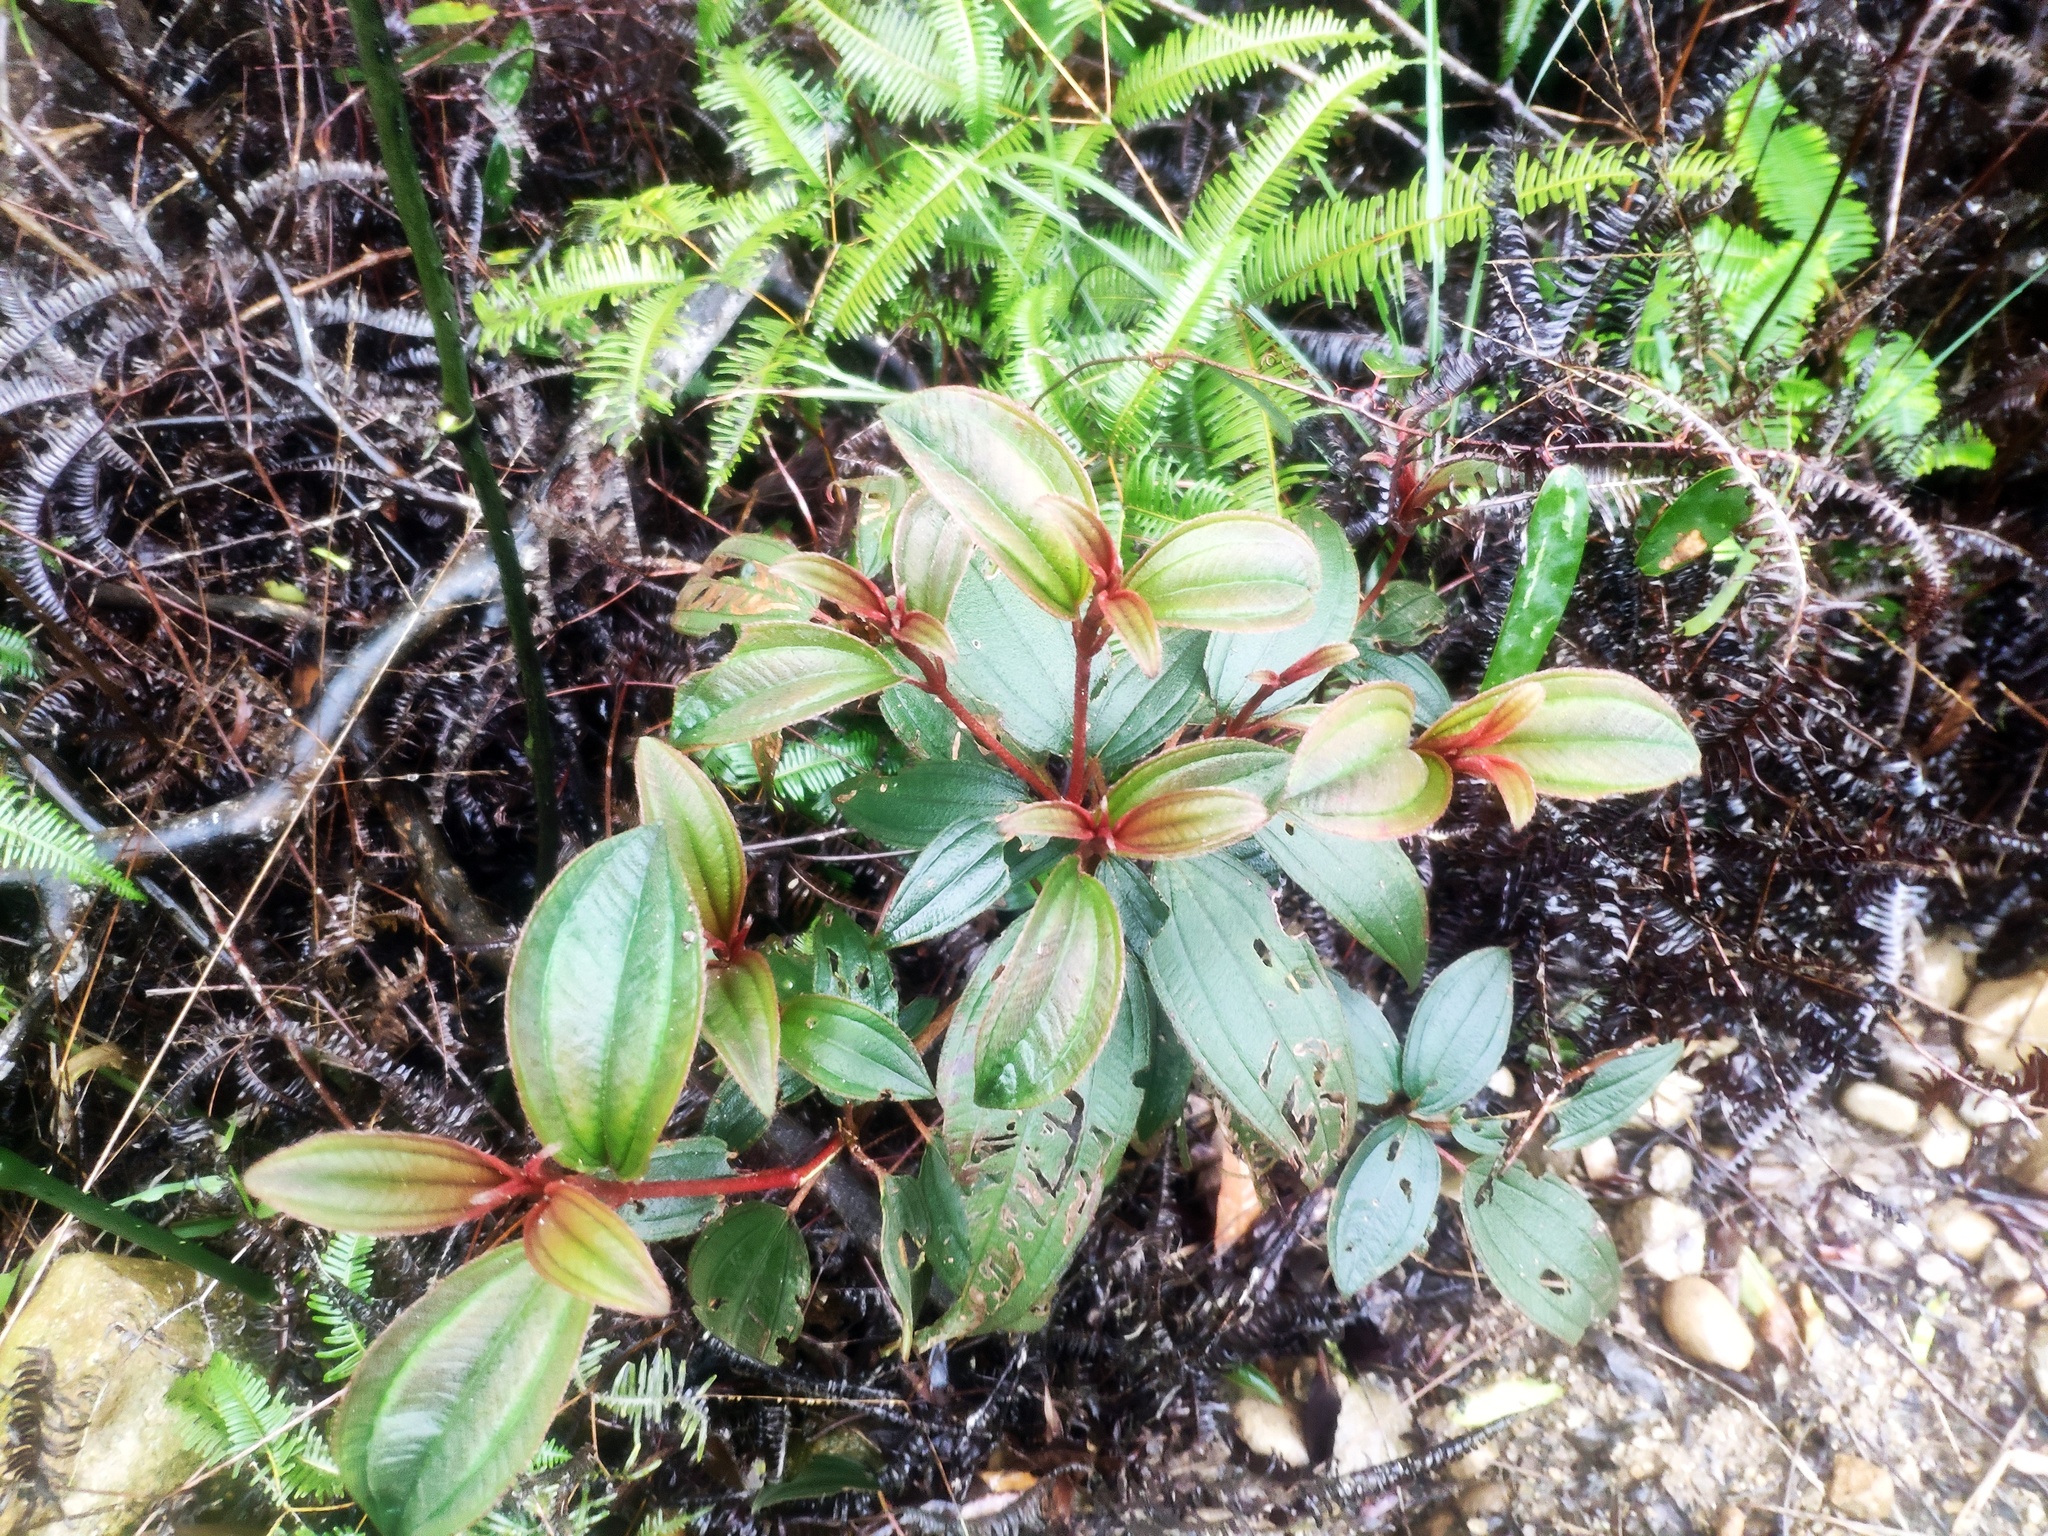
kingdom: Plantae
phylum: Tracheophyta
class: Magnoliopsida
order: Myrtales
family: Melastomataceae
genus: Melastoma
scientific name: Melastoma malabathricum
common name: Indian-rhododendron
